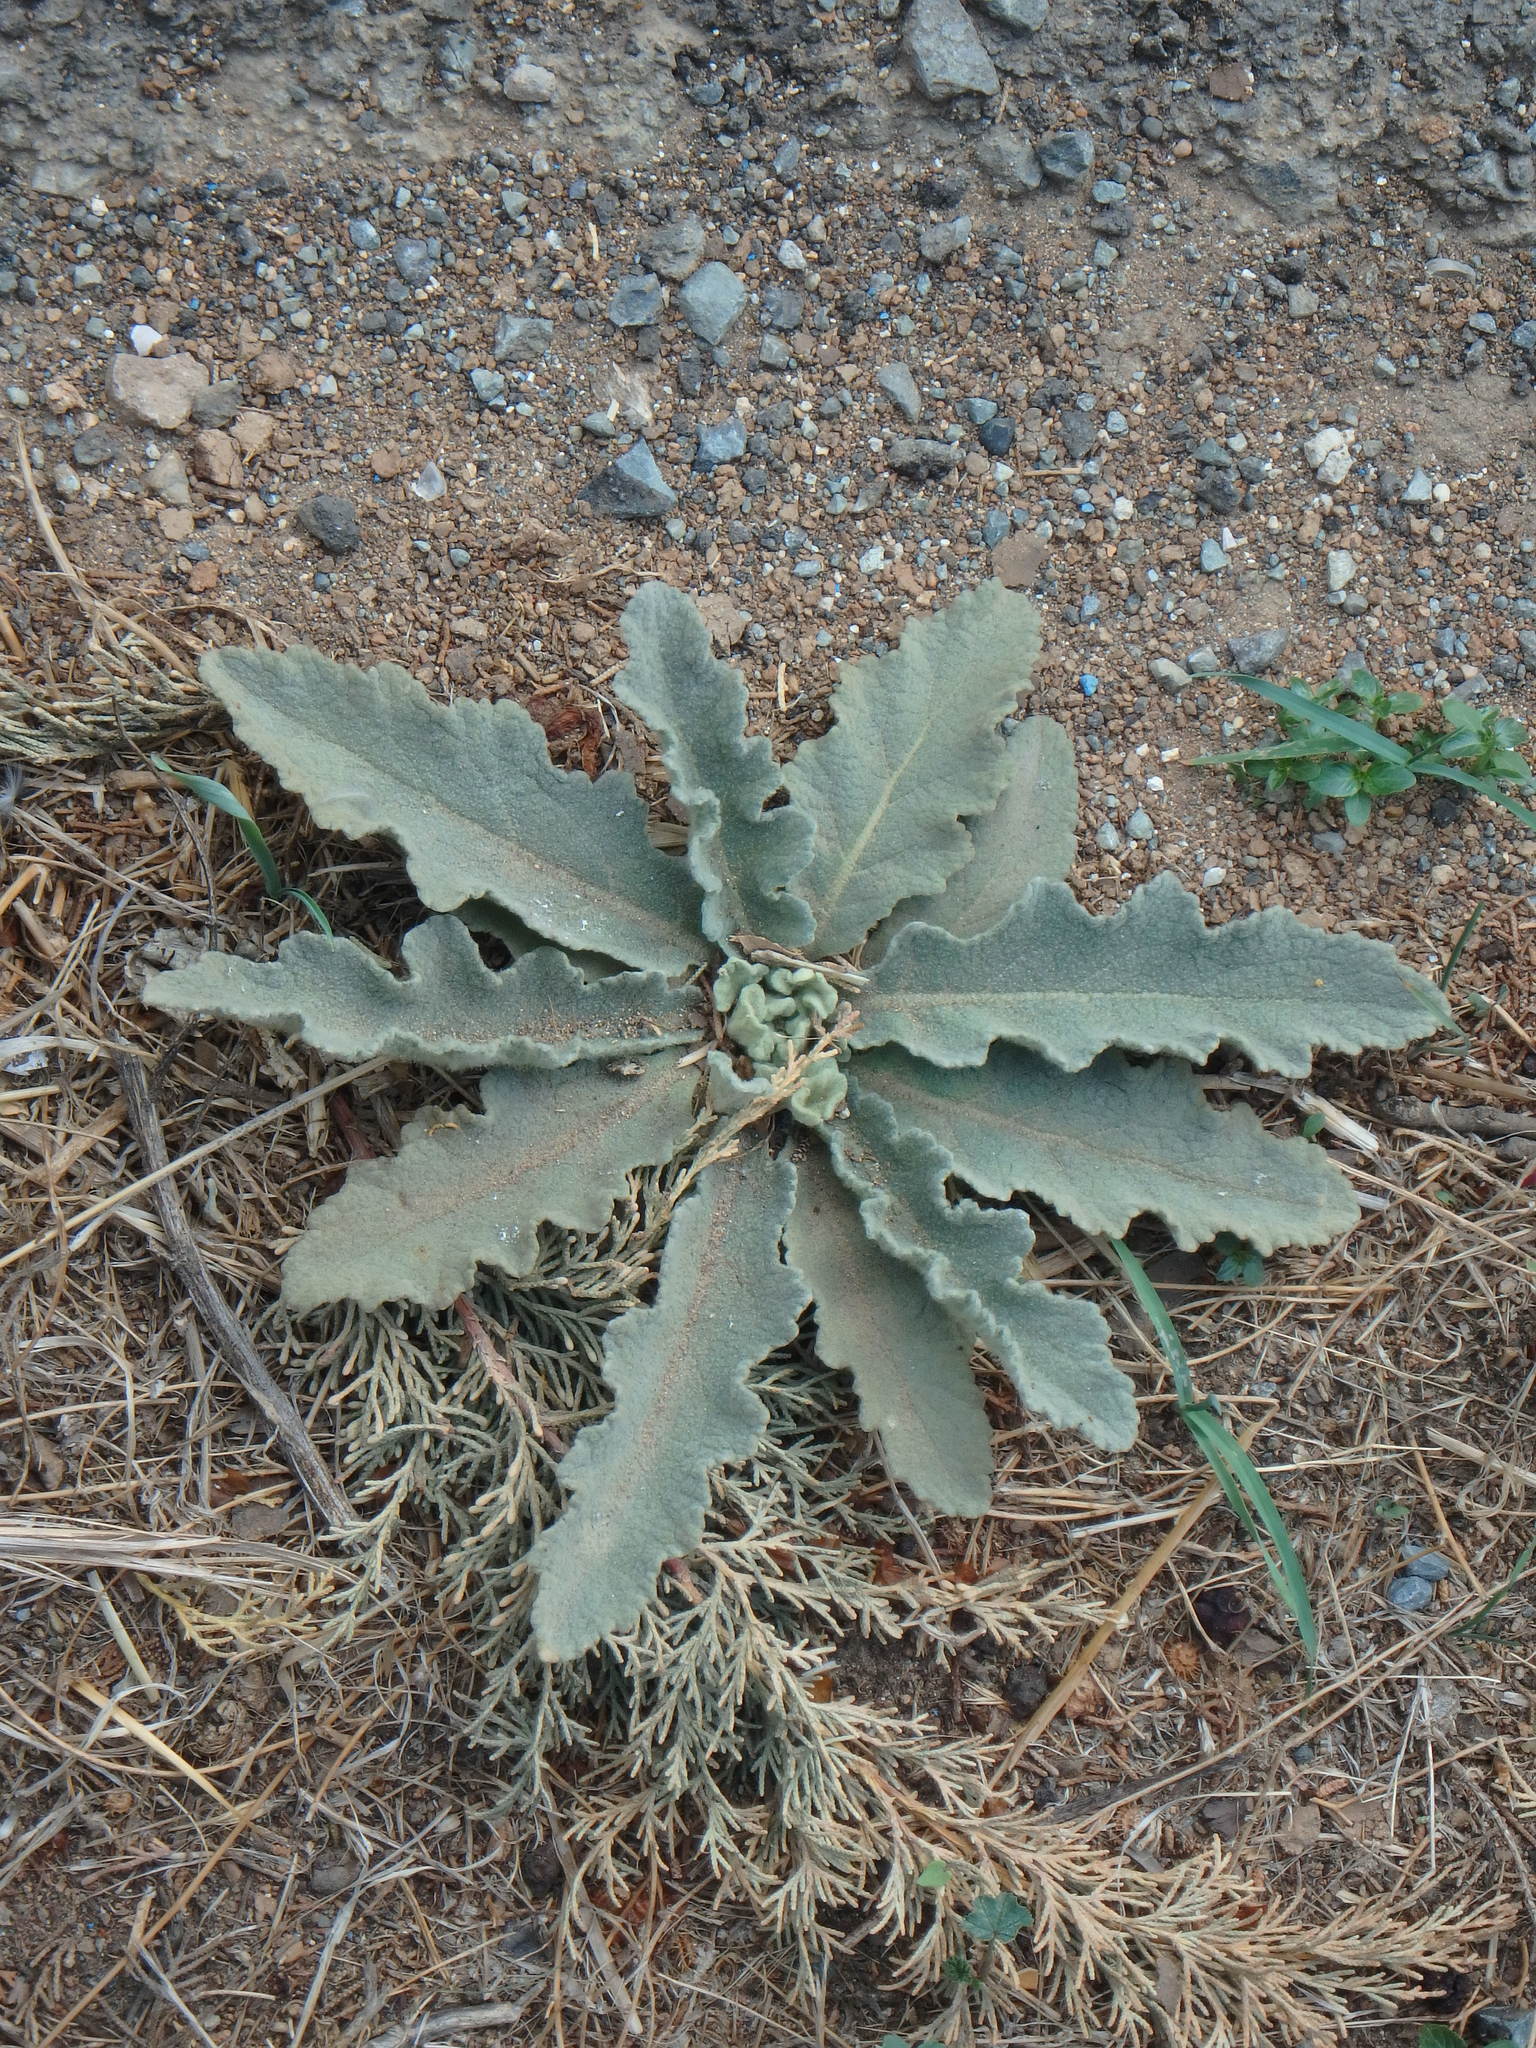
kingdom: Plantae
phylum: Tracheophyta
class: Magnoliopsida
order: Lamiales
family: Scrophulariaceae
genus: Verbascum
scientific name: Verbascum sinuatum
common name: Wavyleaf mullein
